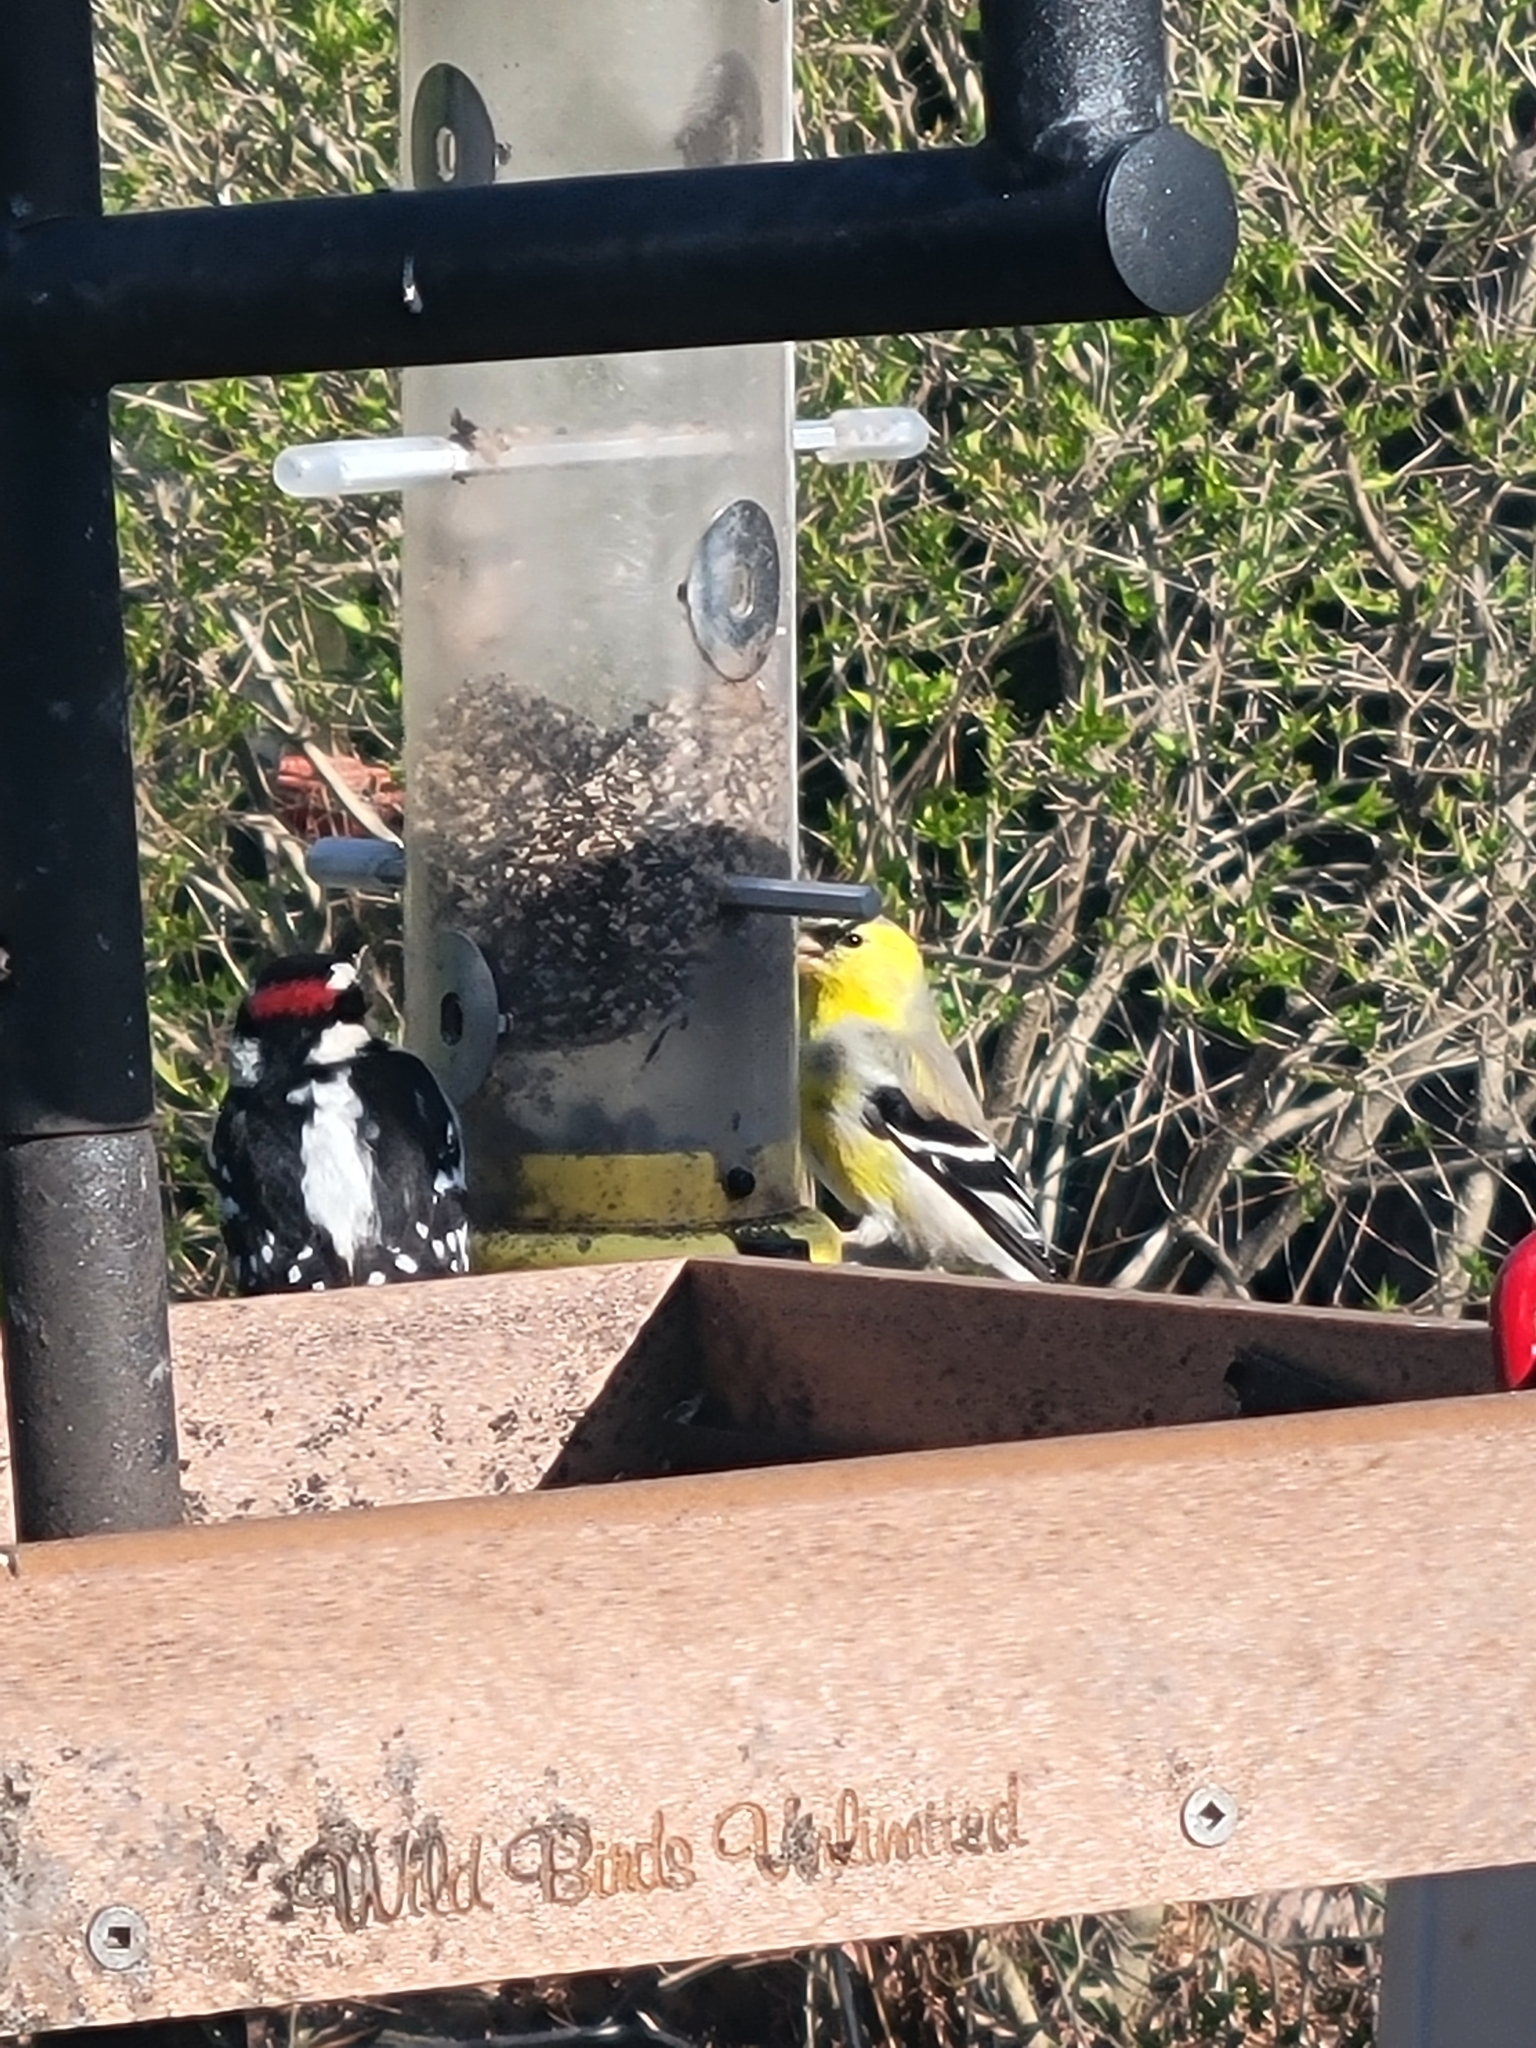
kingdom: Animalia
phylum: Chordata
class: Aves
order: Piciformes
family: Picidae
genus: Dryobates
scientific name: Dryobates pubescens
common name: Downy woodpecker
